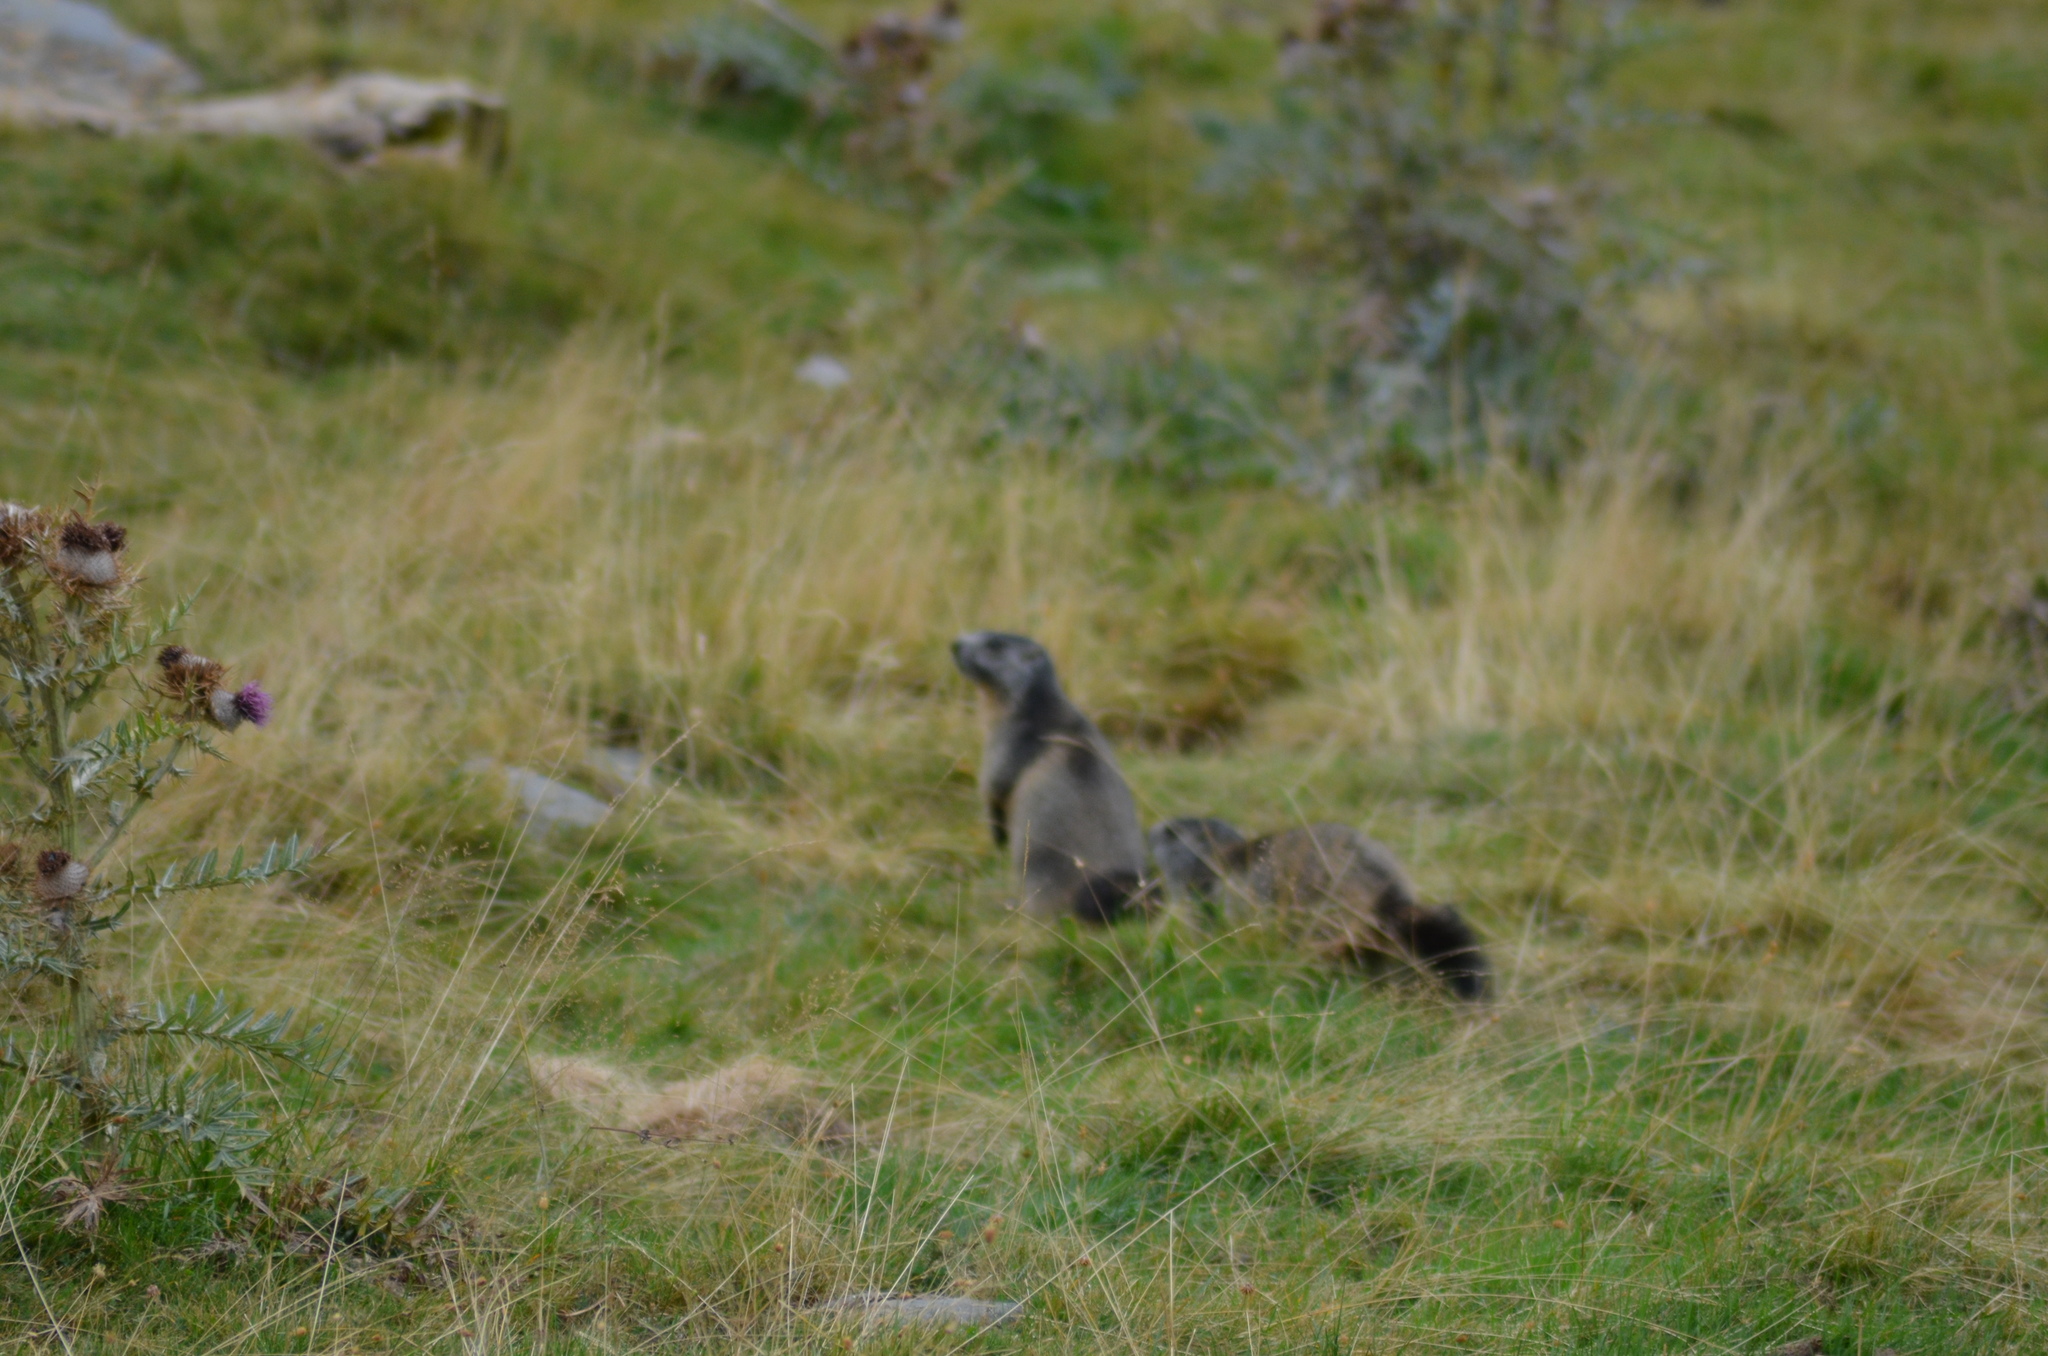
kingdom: Animalia
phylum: Chordata
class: Mammalia
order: Rodentia
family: Sciuridae
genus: Marmota
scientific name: Marmota marmota
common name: Alpine marmot
